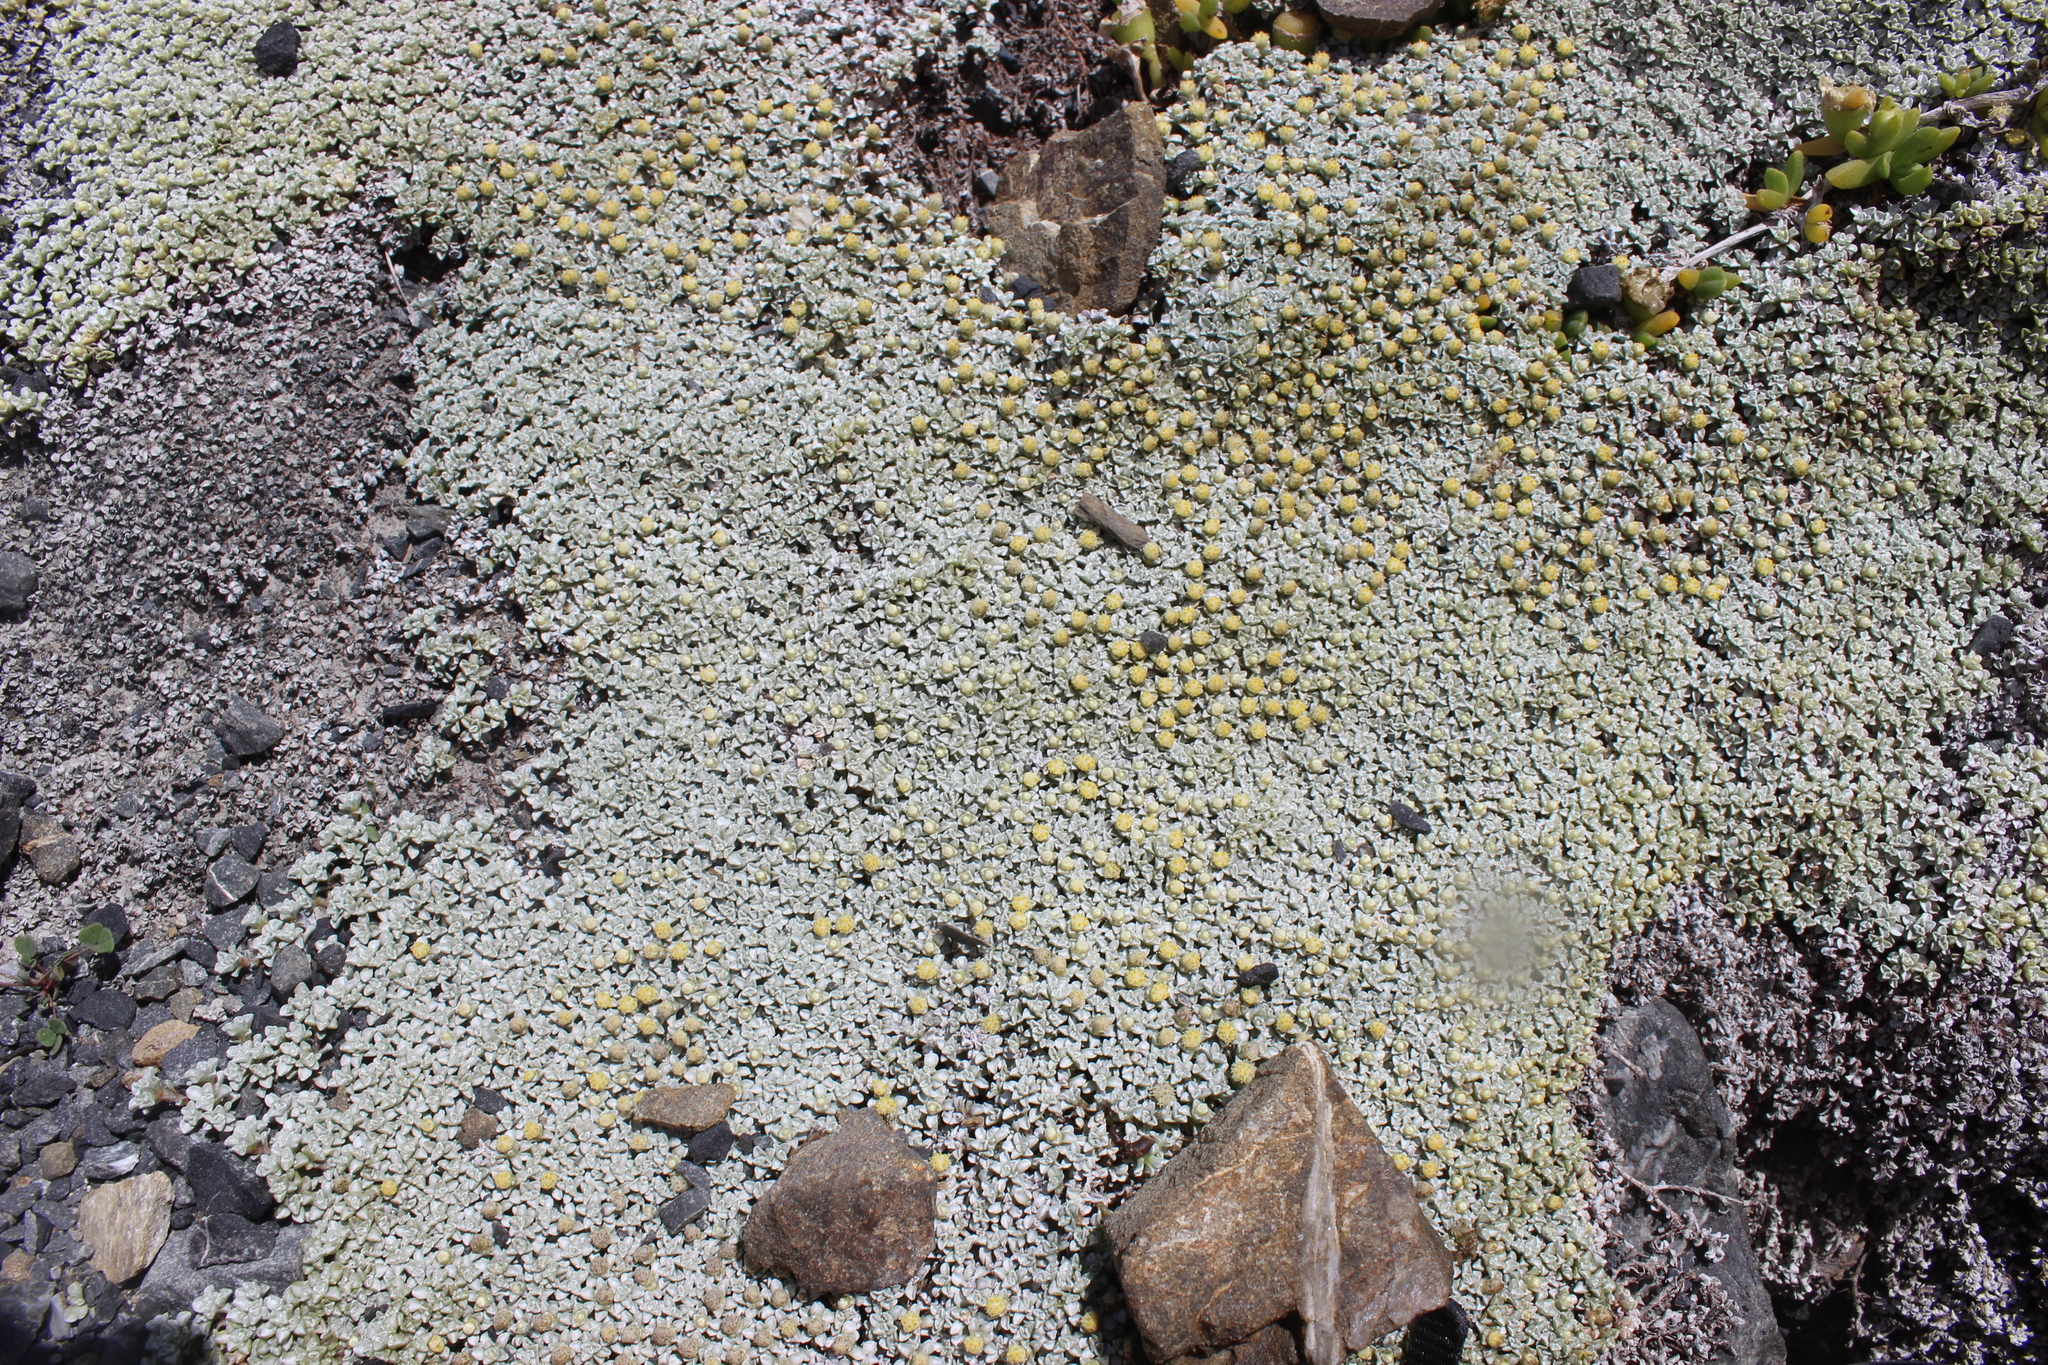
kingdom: Plantae
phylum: Tracheophyta
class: Magnoliopsida
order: Asterales
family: Asteraceae
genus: Raoulia
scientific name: Raoulia hookeri
